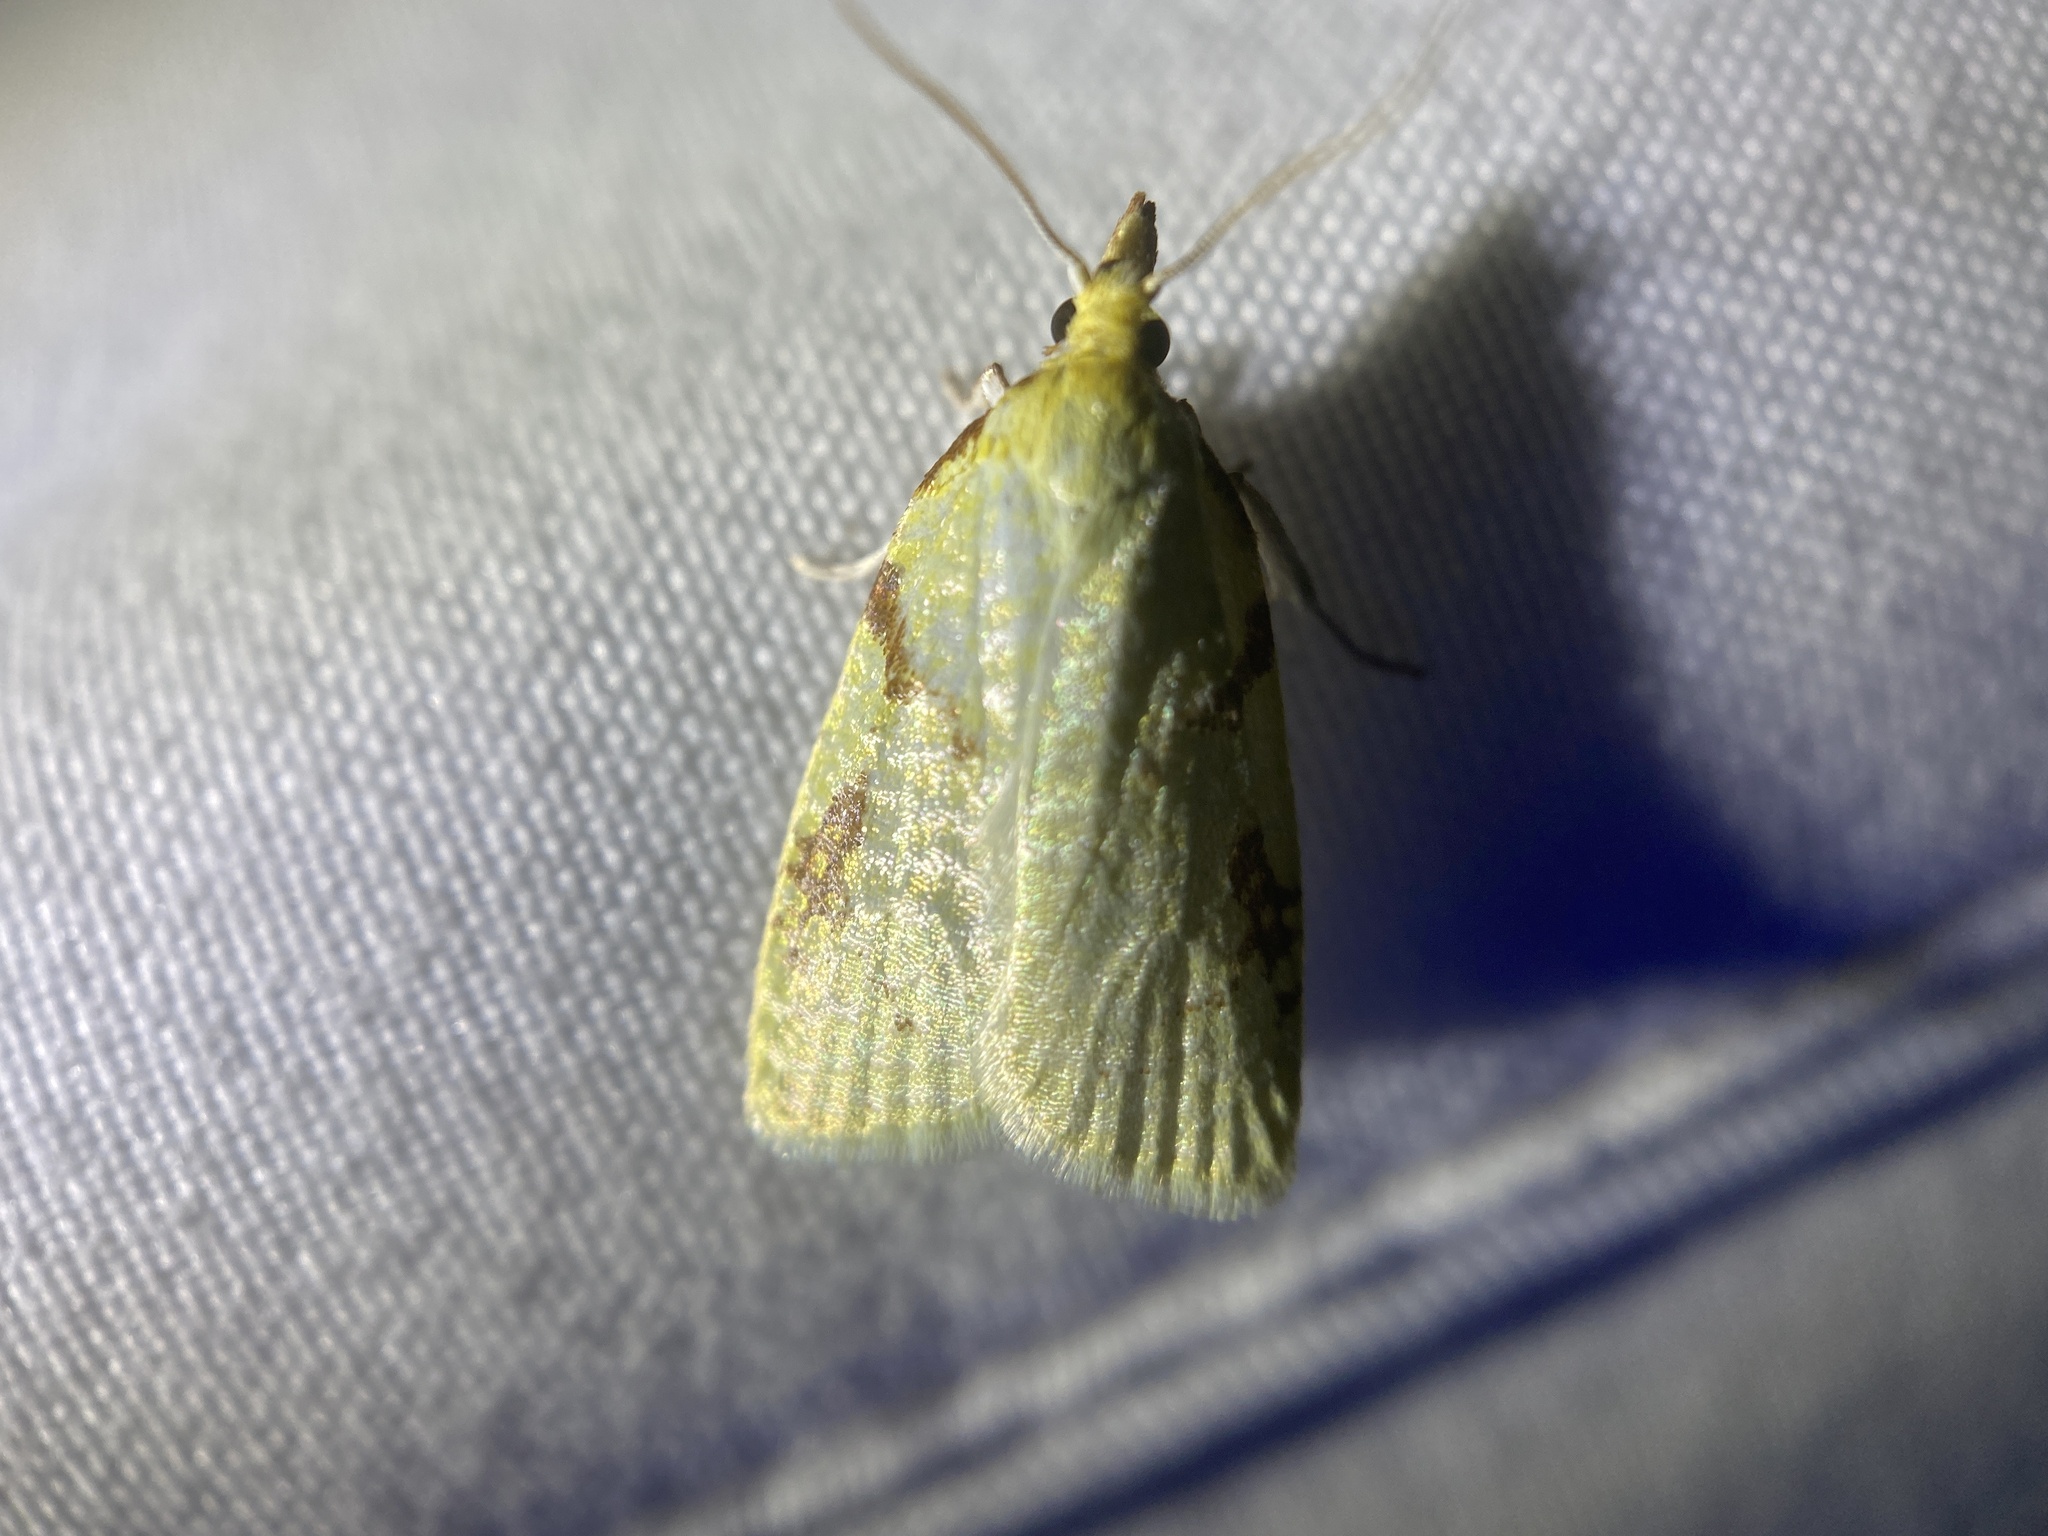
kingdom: Animalia
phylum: Arthropoda
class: Insecta
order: Lepidoptera
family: Tortricidae
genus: Cenopis
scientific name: Cenopis pettitana
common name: Maple-basswood leafroller moth
